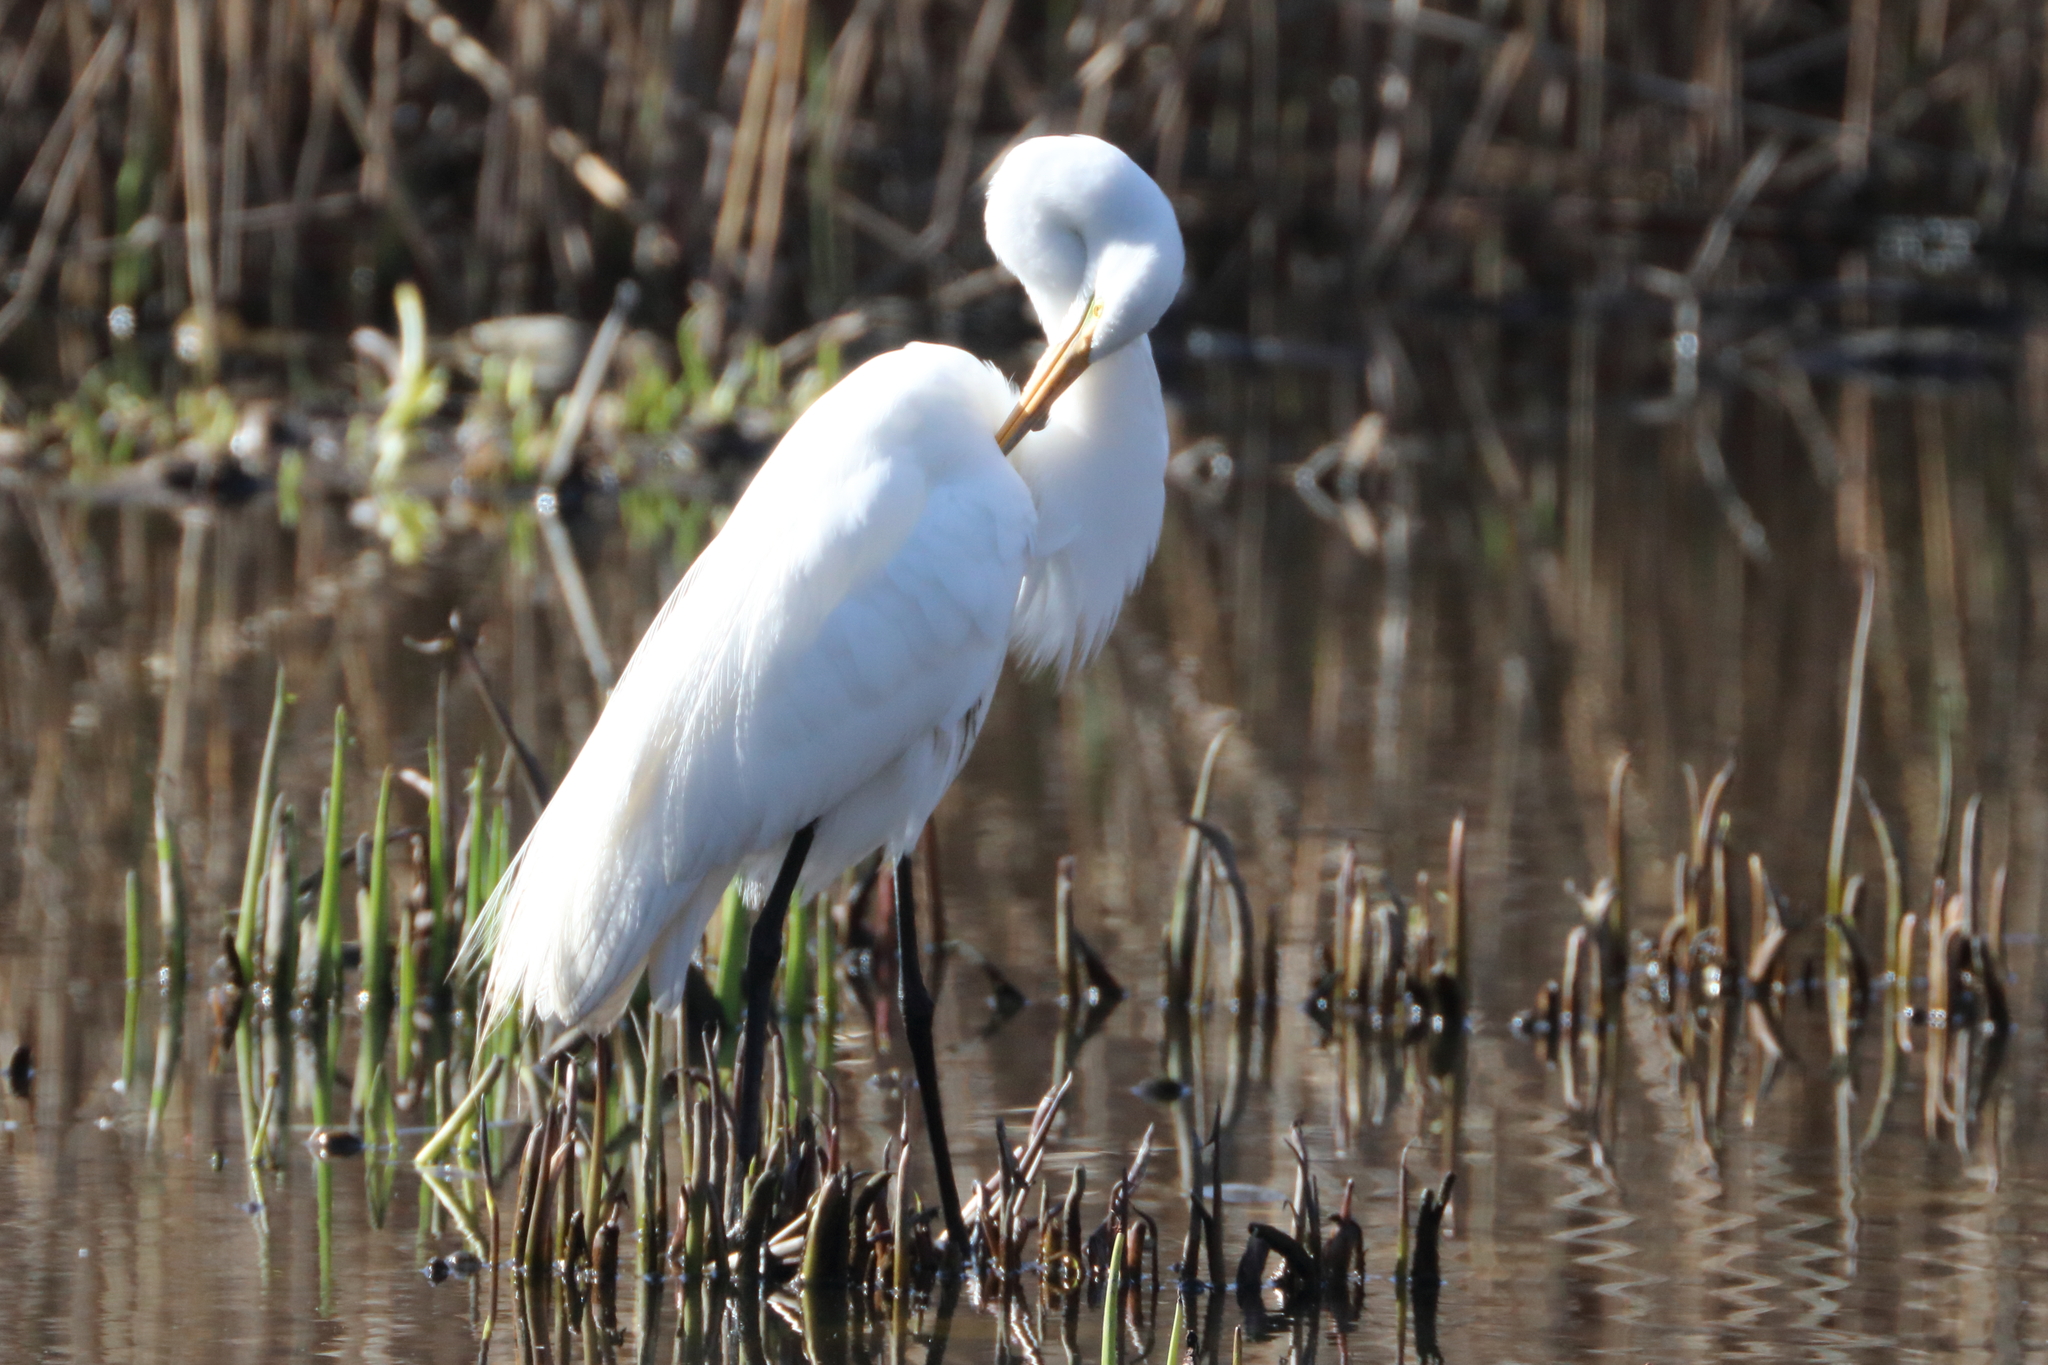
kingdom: Animalia
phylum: Chordata
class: Aves
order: Pelecaniformes
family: Ardeidae
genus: Ardea
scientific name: Ardea alba
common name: Great egret
